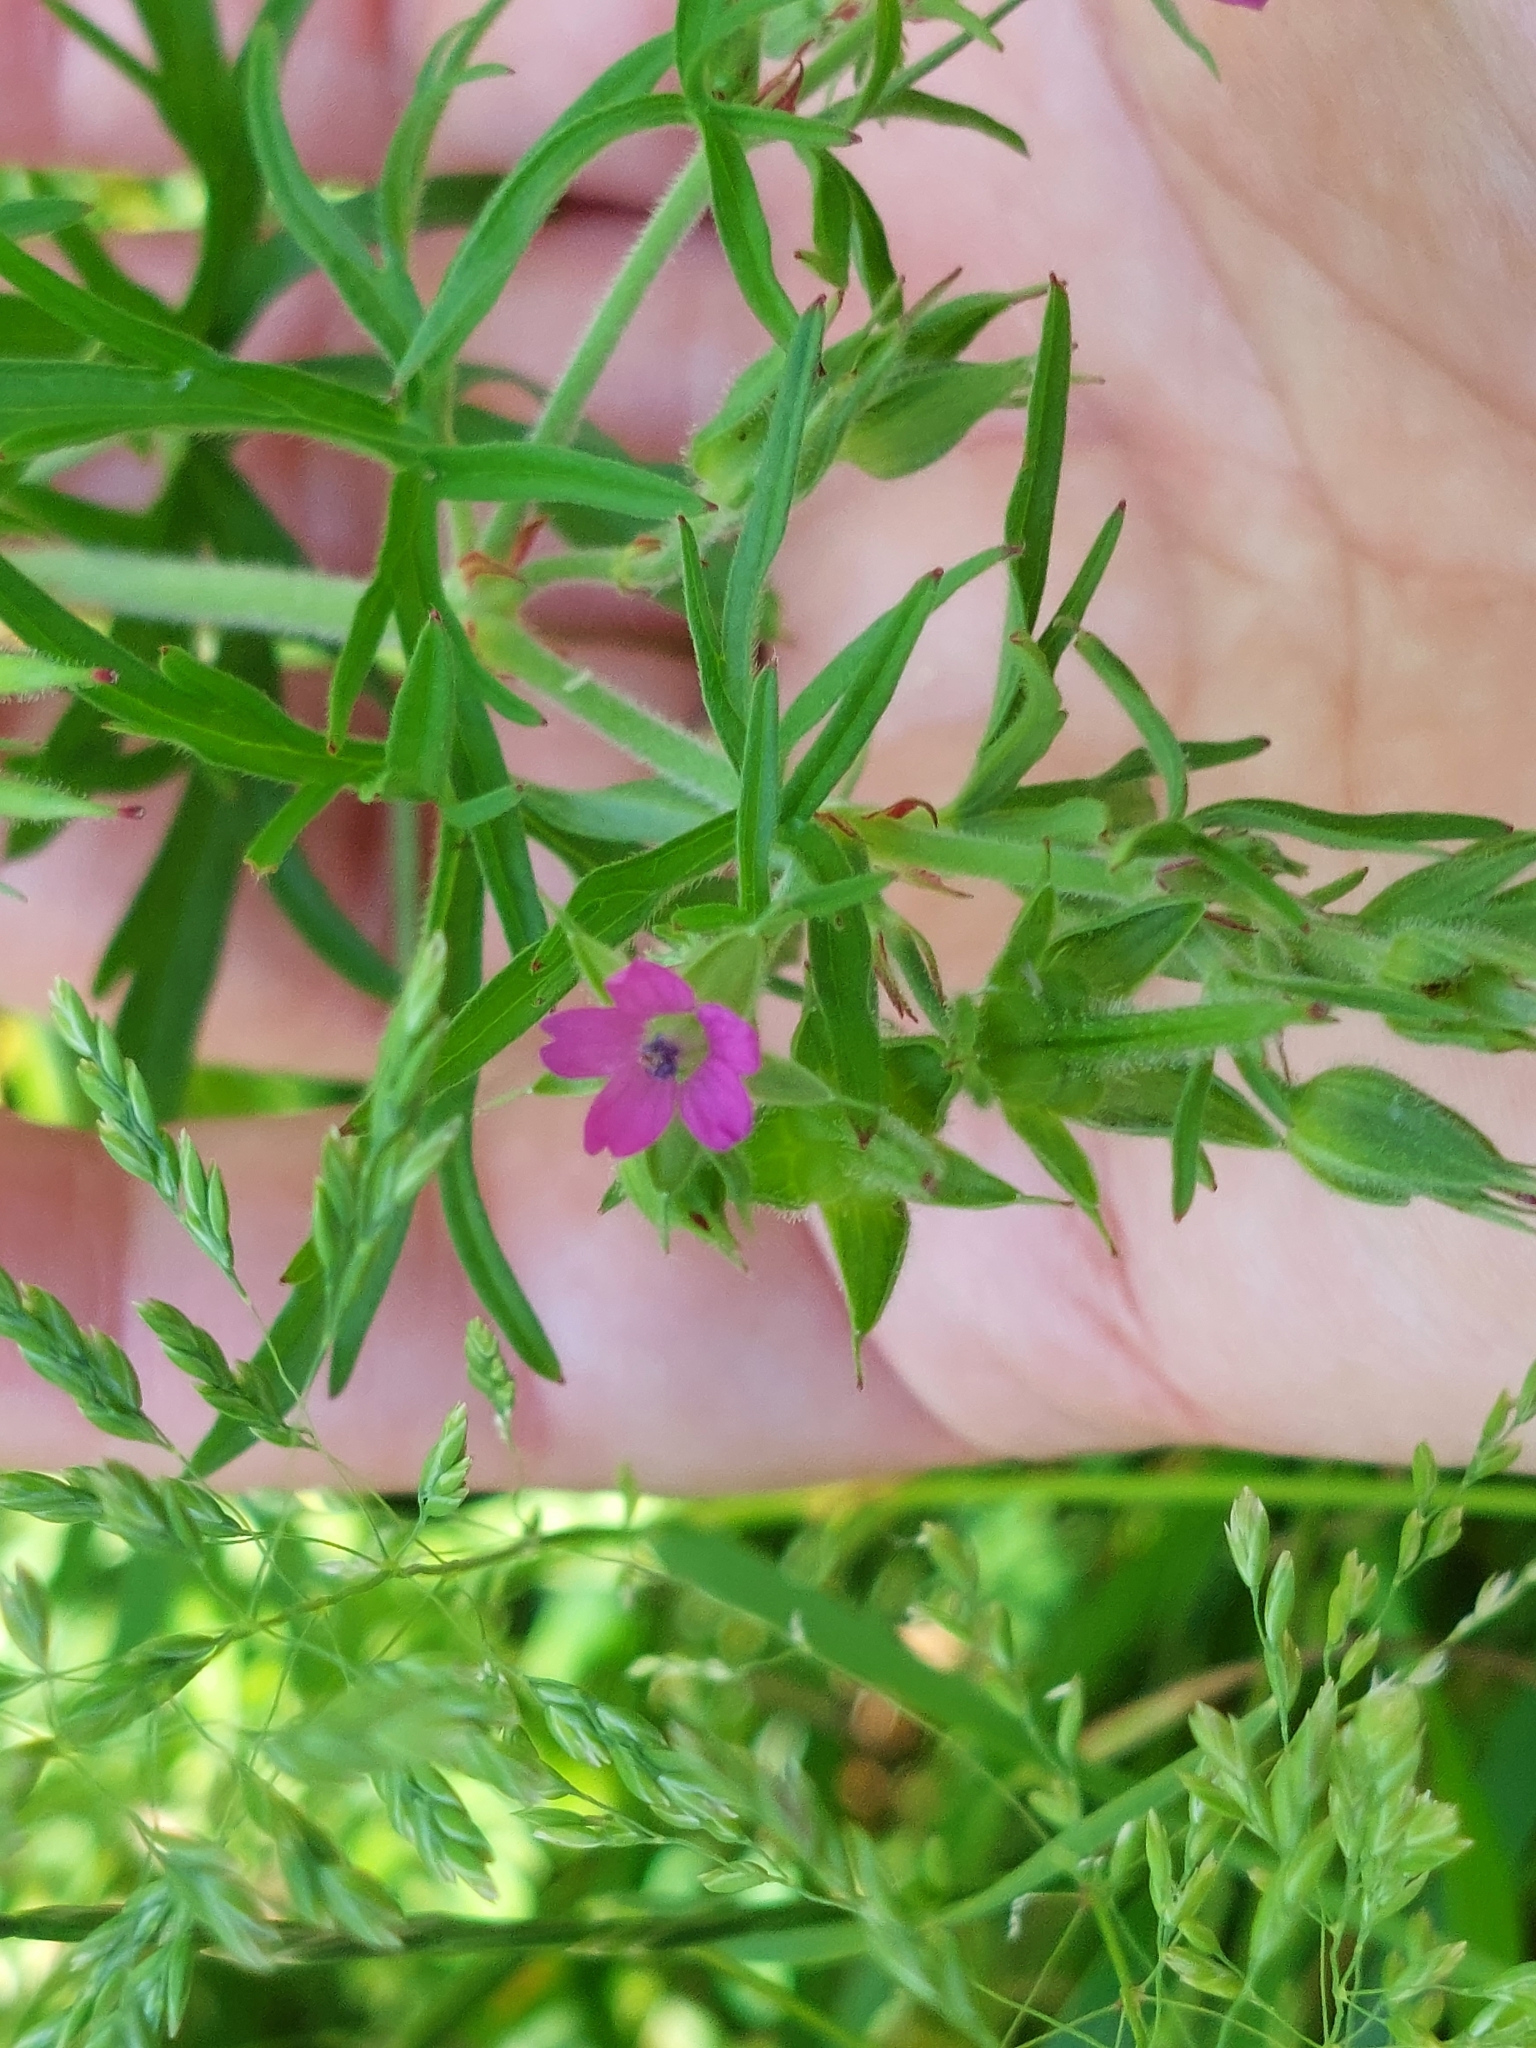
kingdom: Plantae
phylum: Tracheophyta
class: Magnoliopsida
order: Geraniales
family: Geraniaceae
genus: Geranium
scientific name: Geranium dissectum
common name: Cut-leaved crane's-bill
